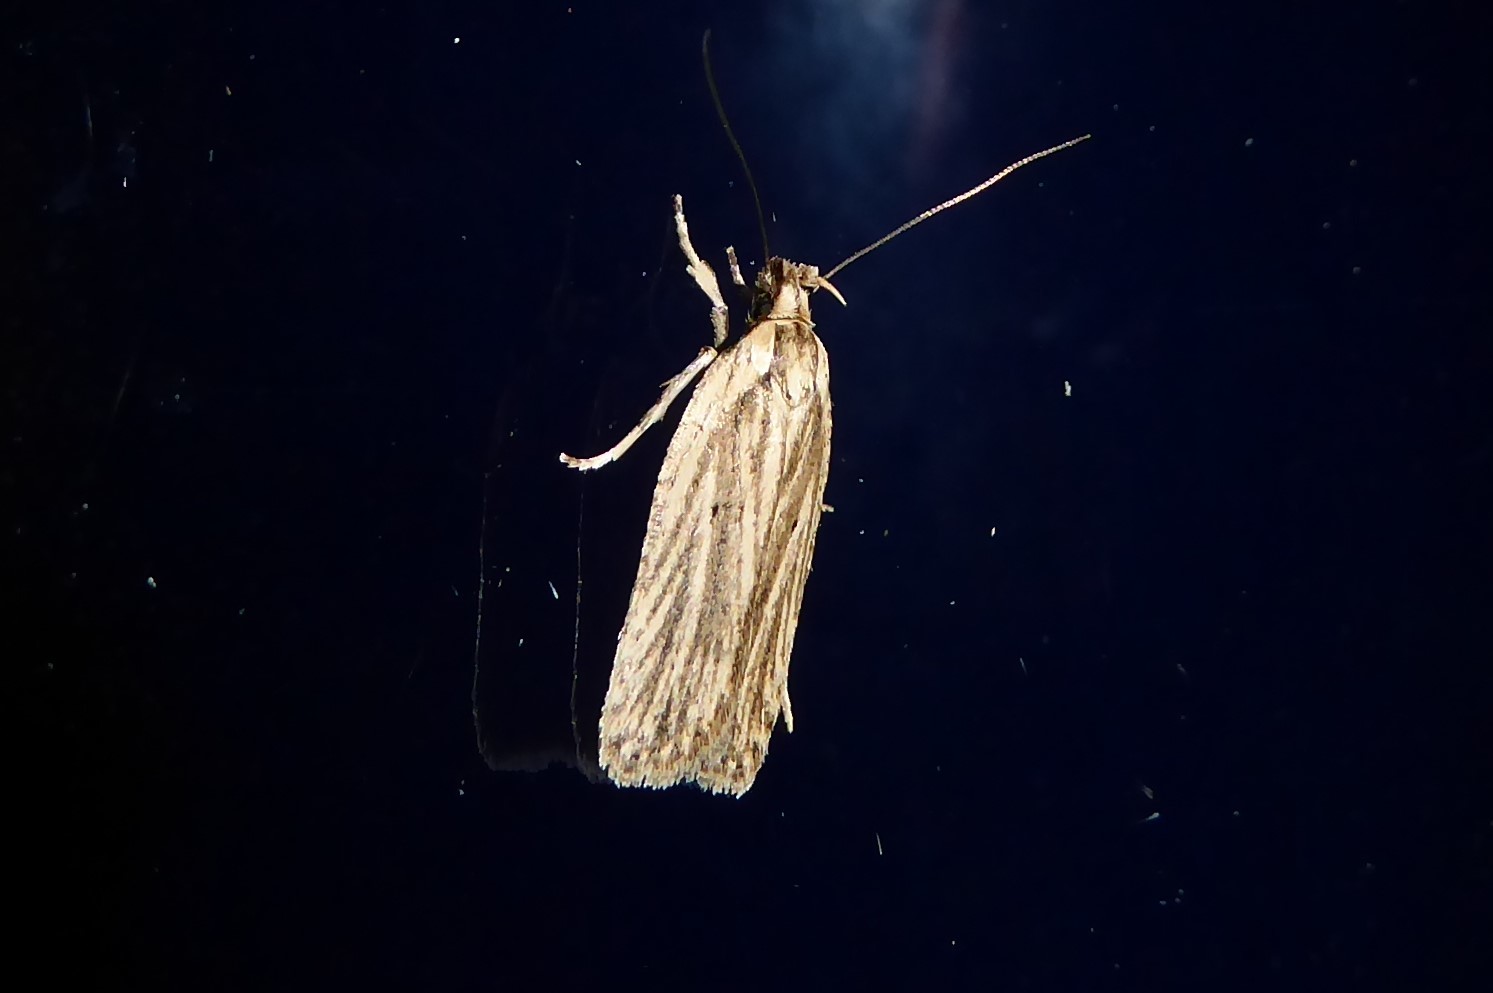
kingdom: Animalia
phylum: Arthropoda
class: Insecta
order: Lepidoptera
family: Depressariidae
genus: Agonopterix
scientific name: Agonopterix
